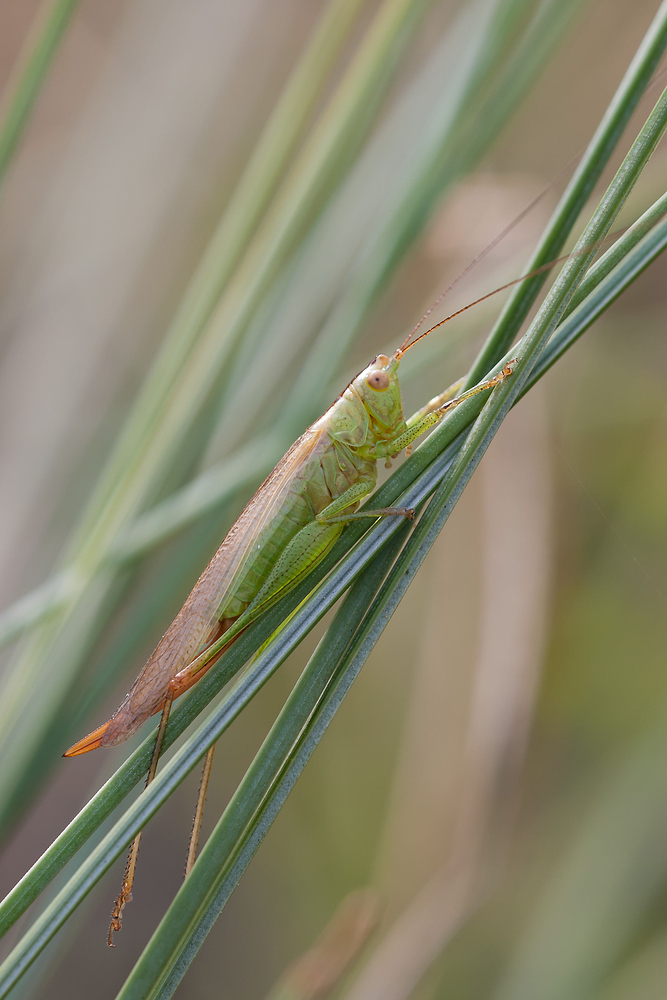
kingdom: Animalia
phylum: Arthropoda
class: Insecta
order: Orthoptera
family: Tettigoniidae
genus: Conocephalus
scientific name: Conocephalus fuscus
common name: Long-winged conehead
